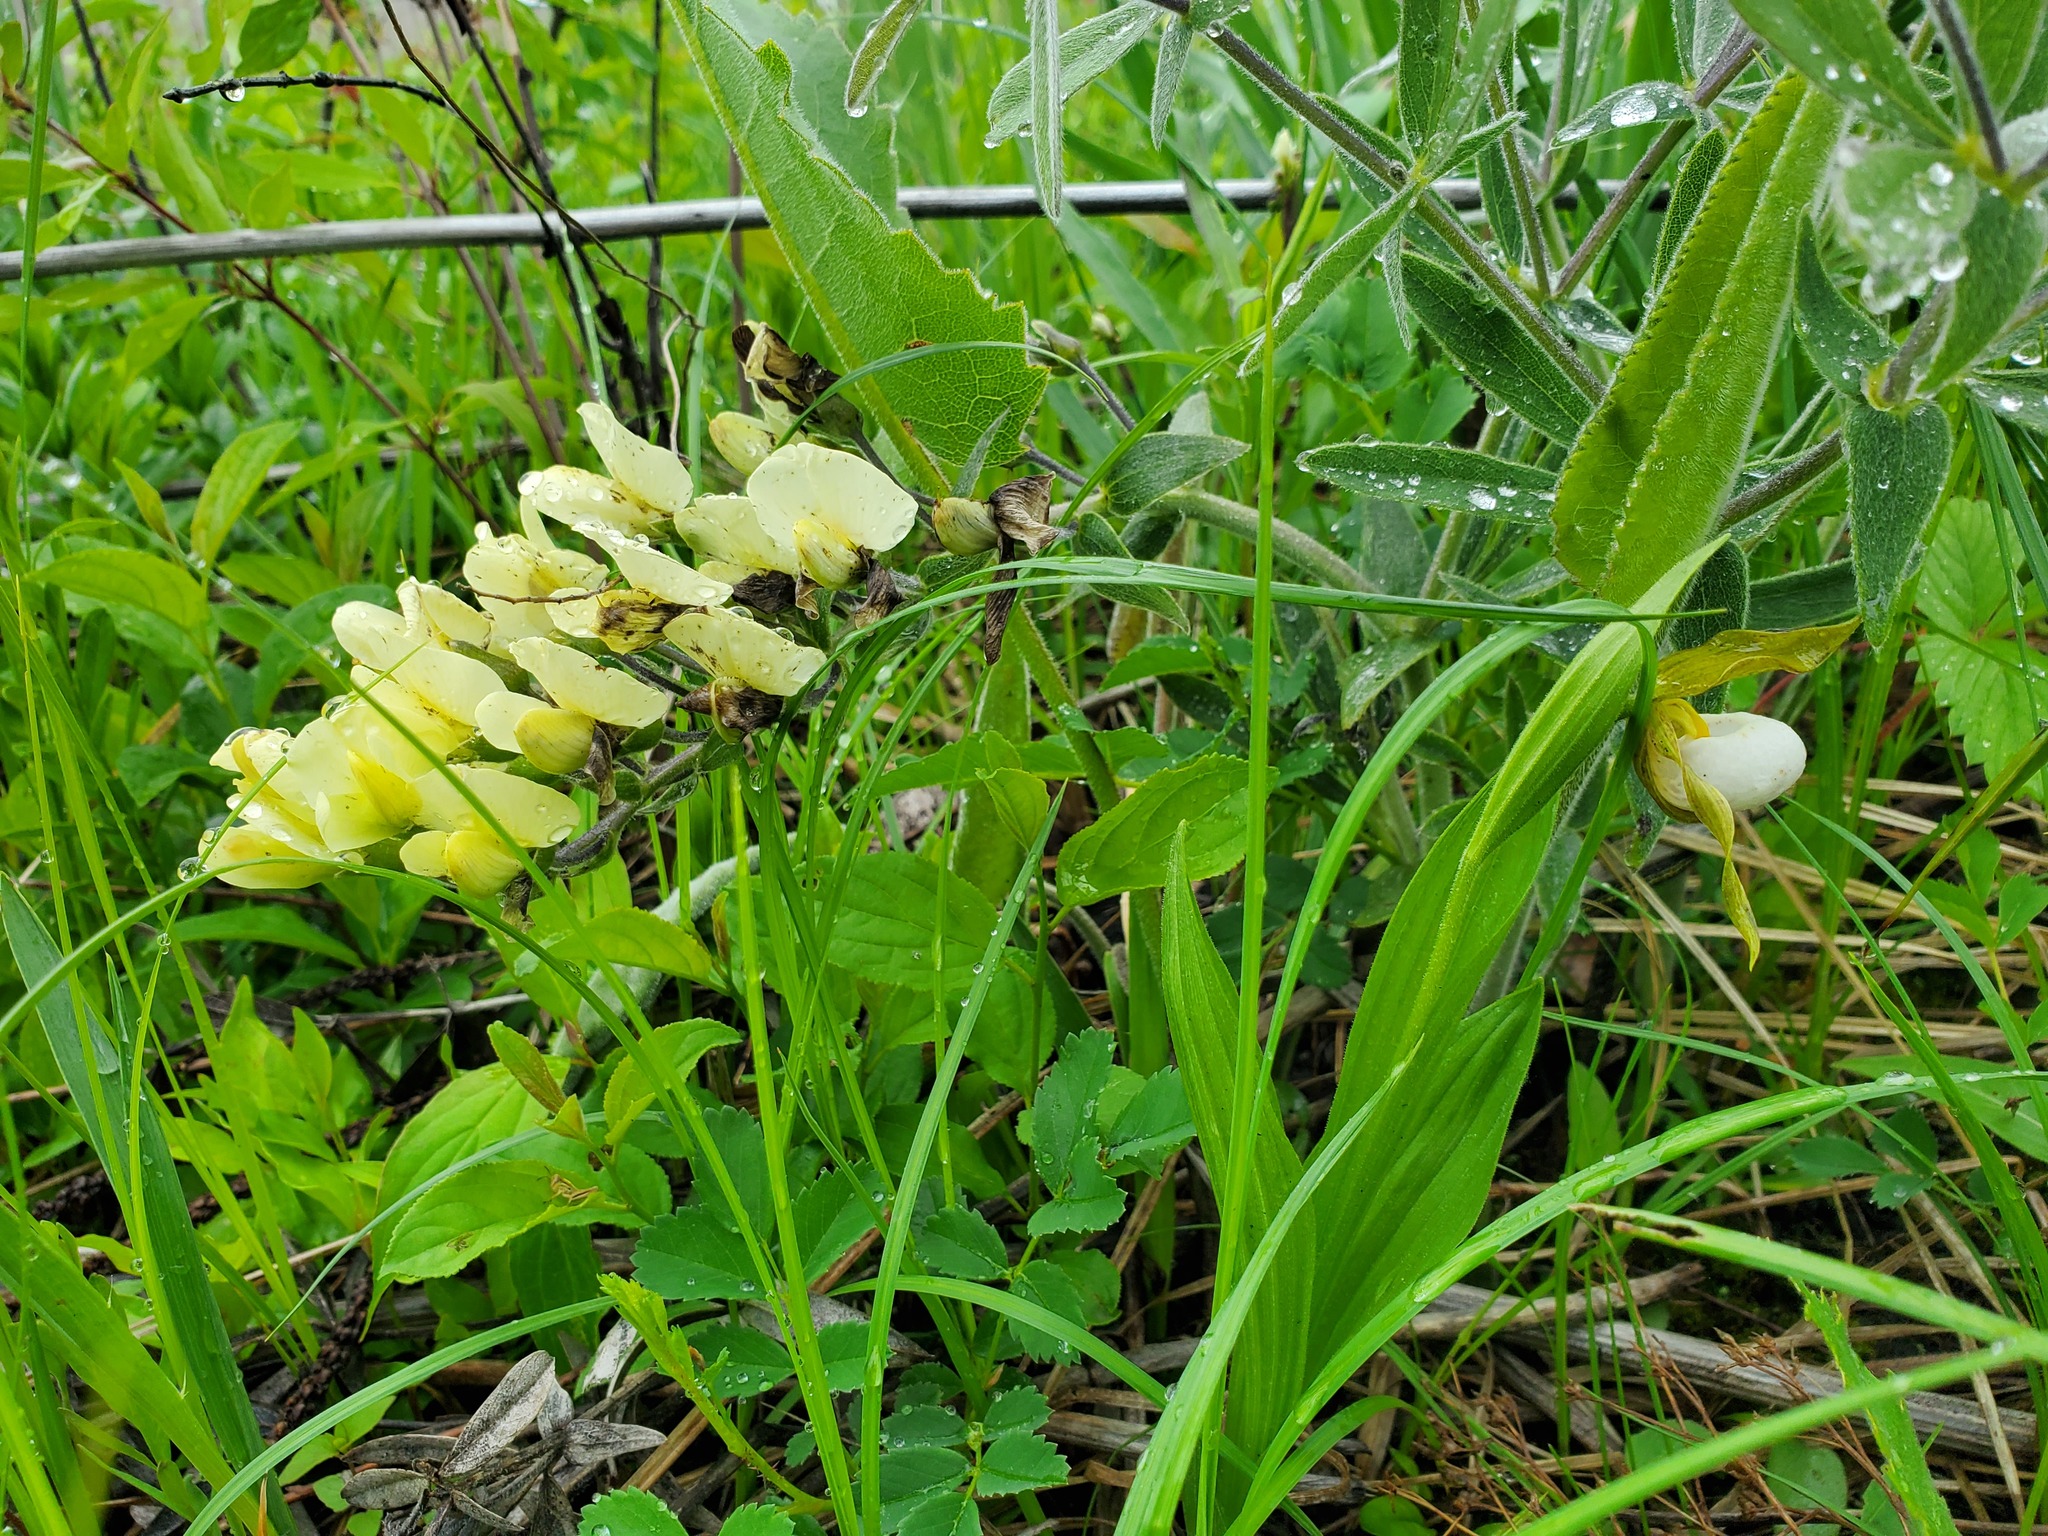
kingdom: Plantae
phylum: Tracheophyta
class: Liliopsida
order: Asparagales
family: Orchidaceae
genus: Cypripedium
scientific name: Cypripedium candidum
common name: White lady's-slipper
